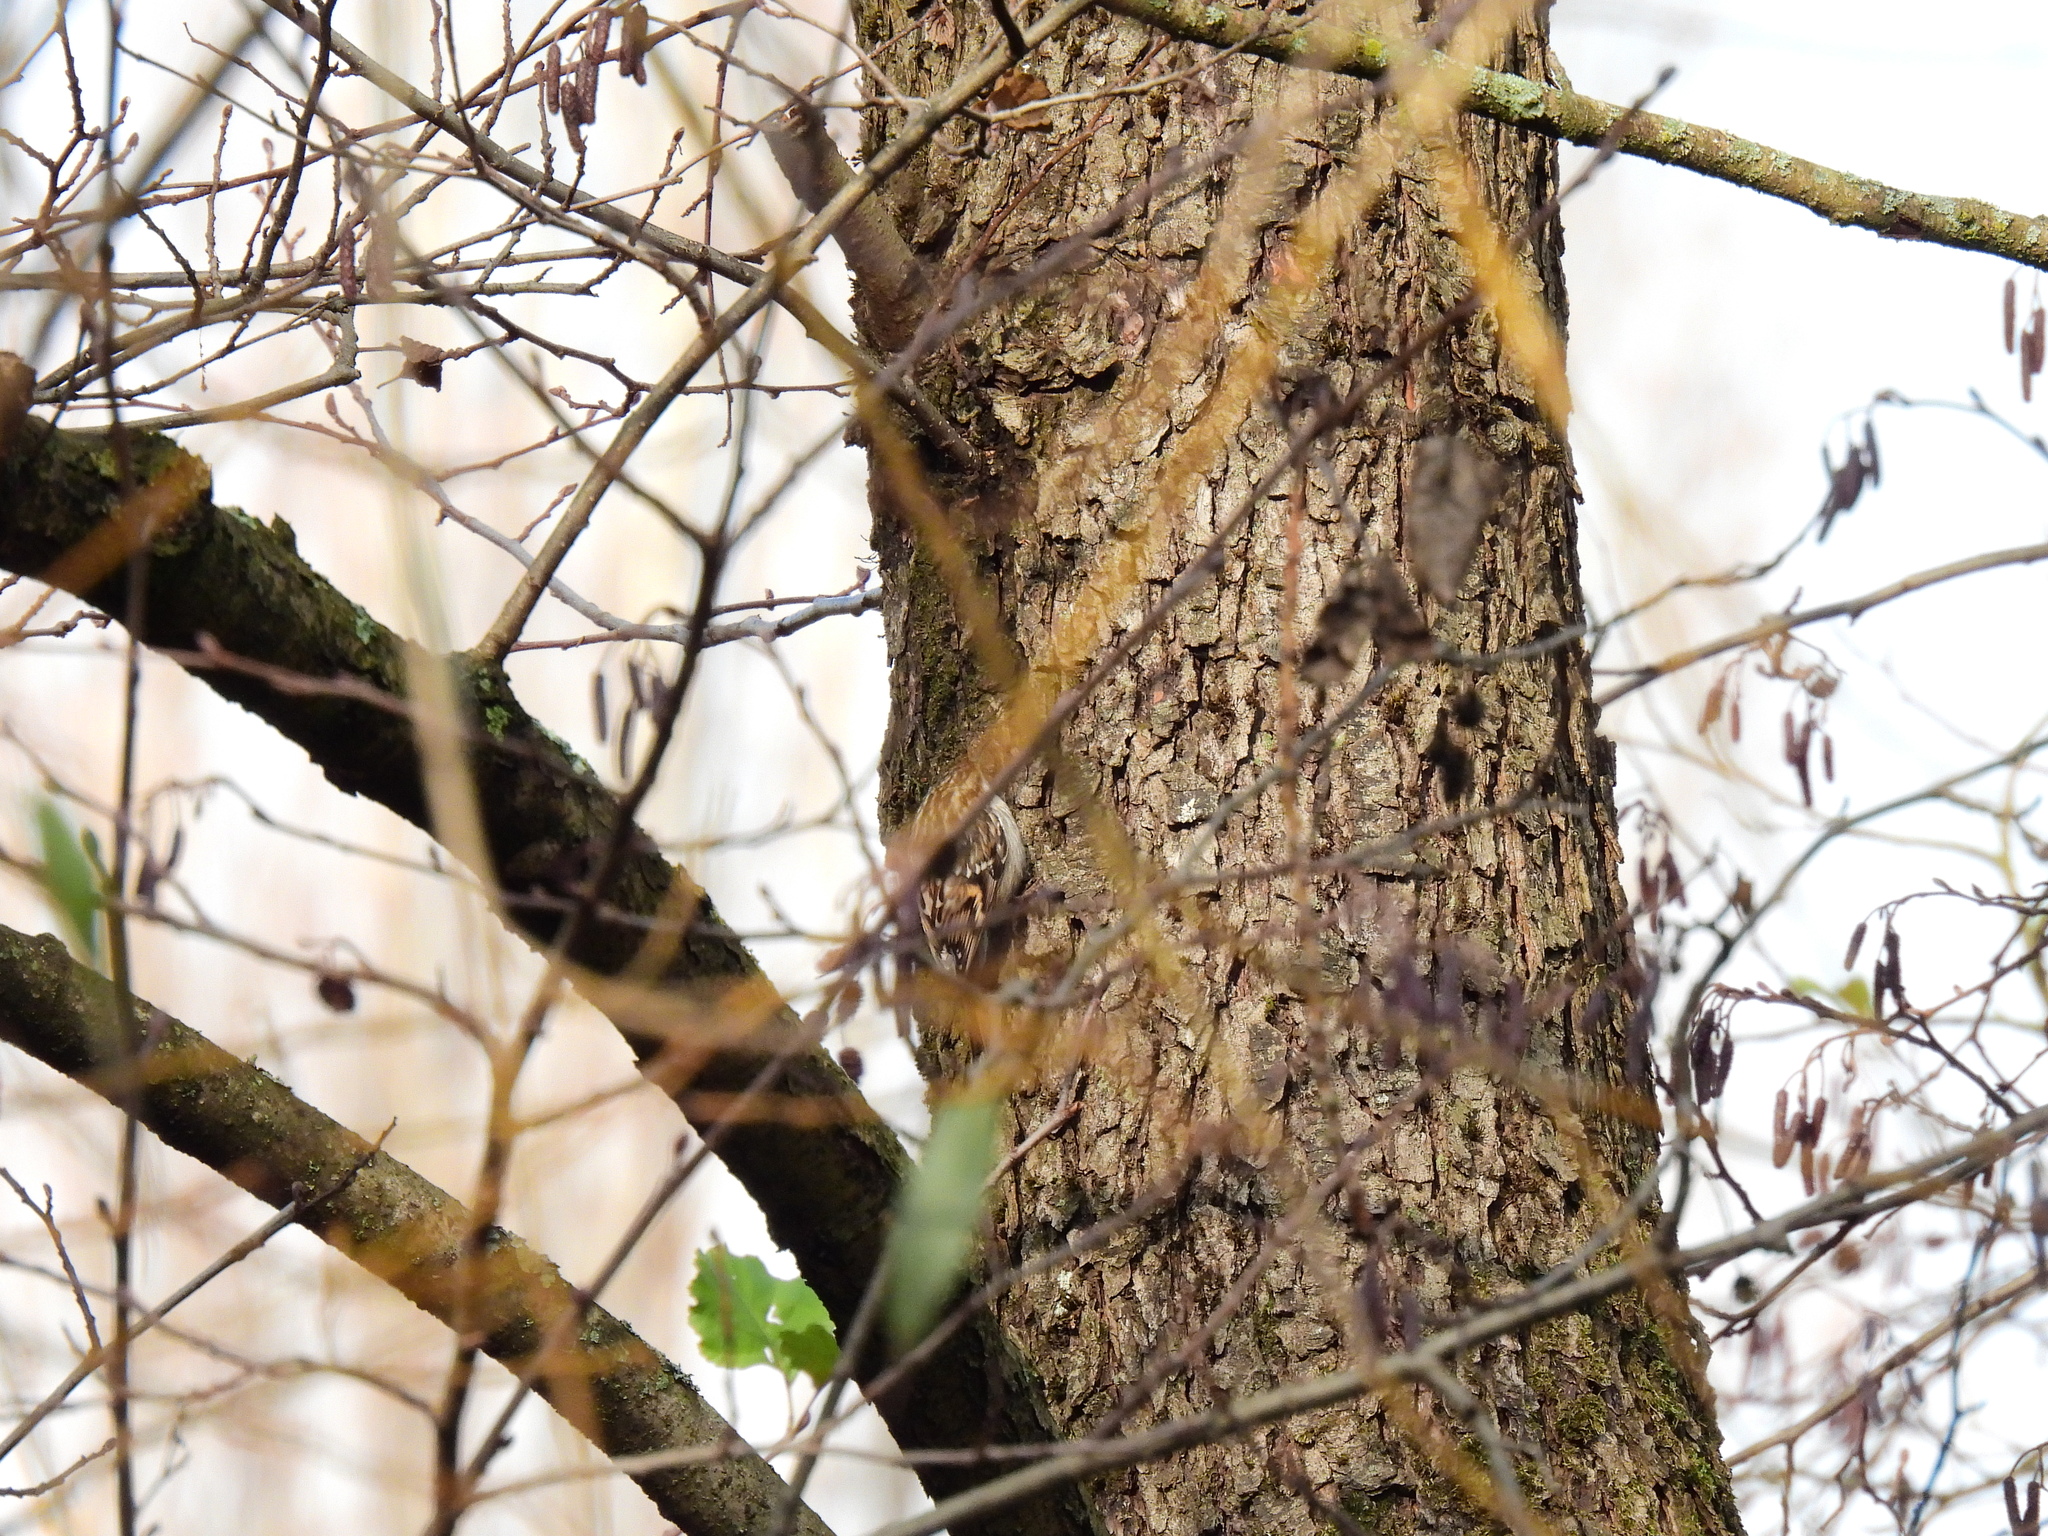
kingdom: Animalia
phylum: Chordata
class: Aves
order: Passeriformes
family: Certhiidae
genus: Certhia
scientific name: Certhia brachydactyla
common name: Short-toed treecreeper
